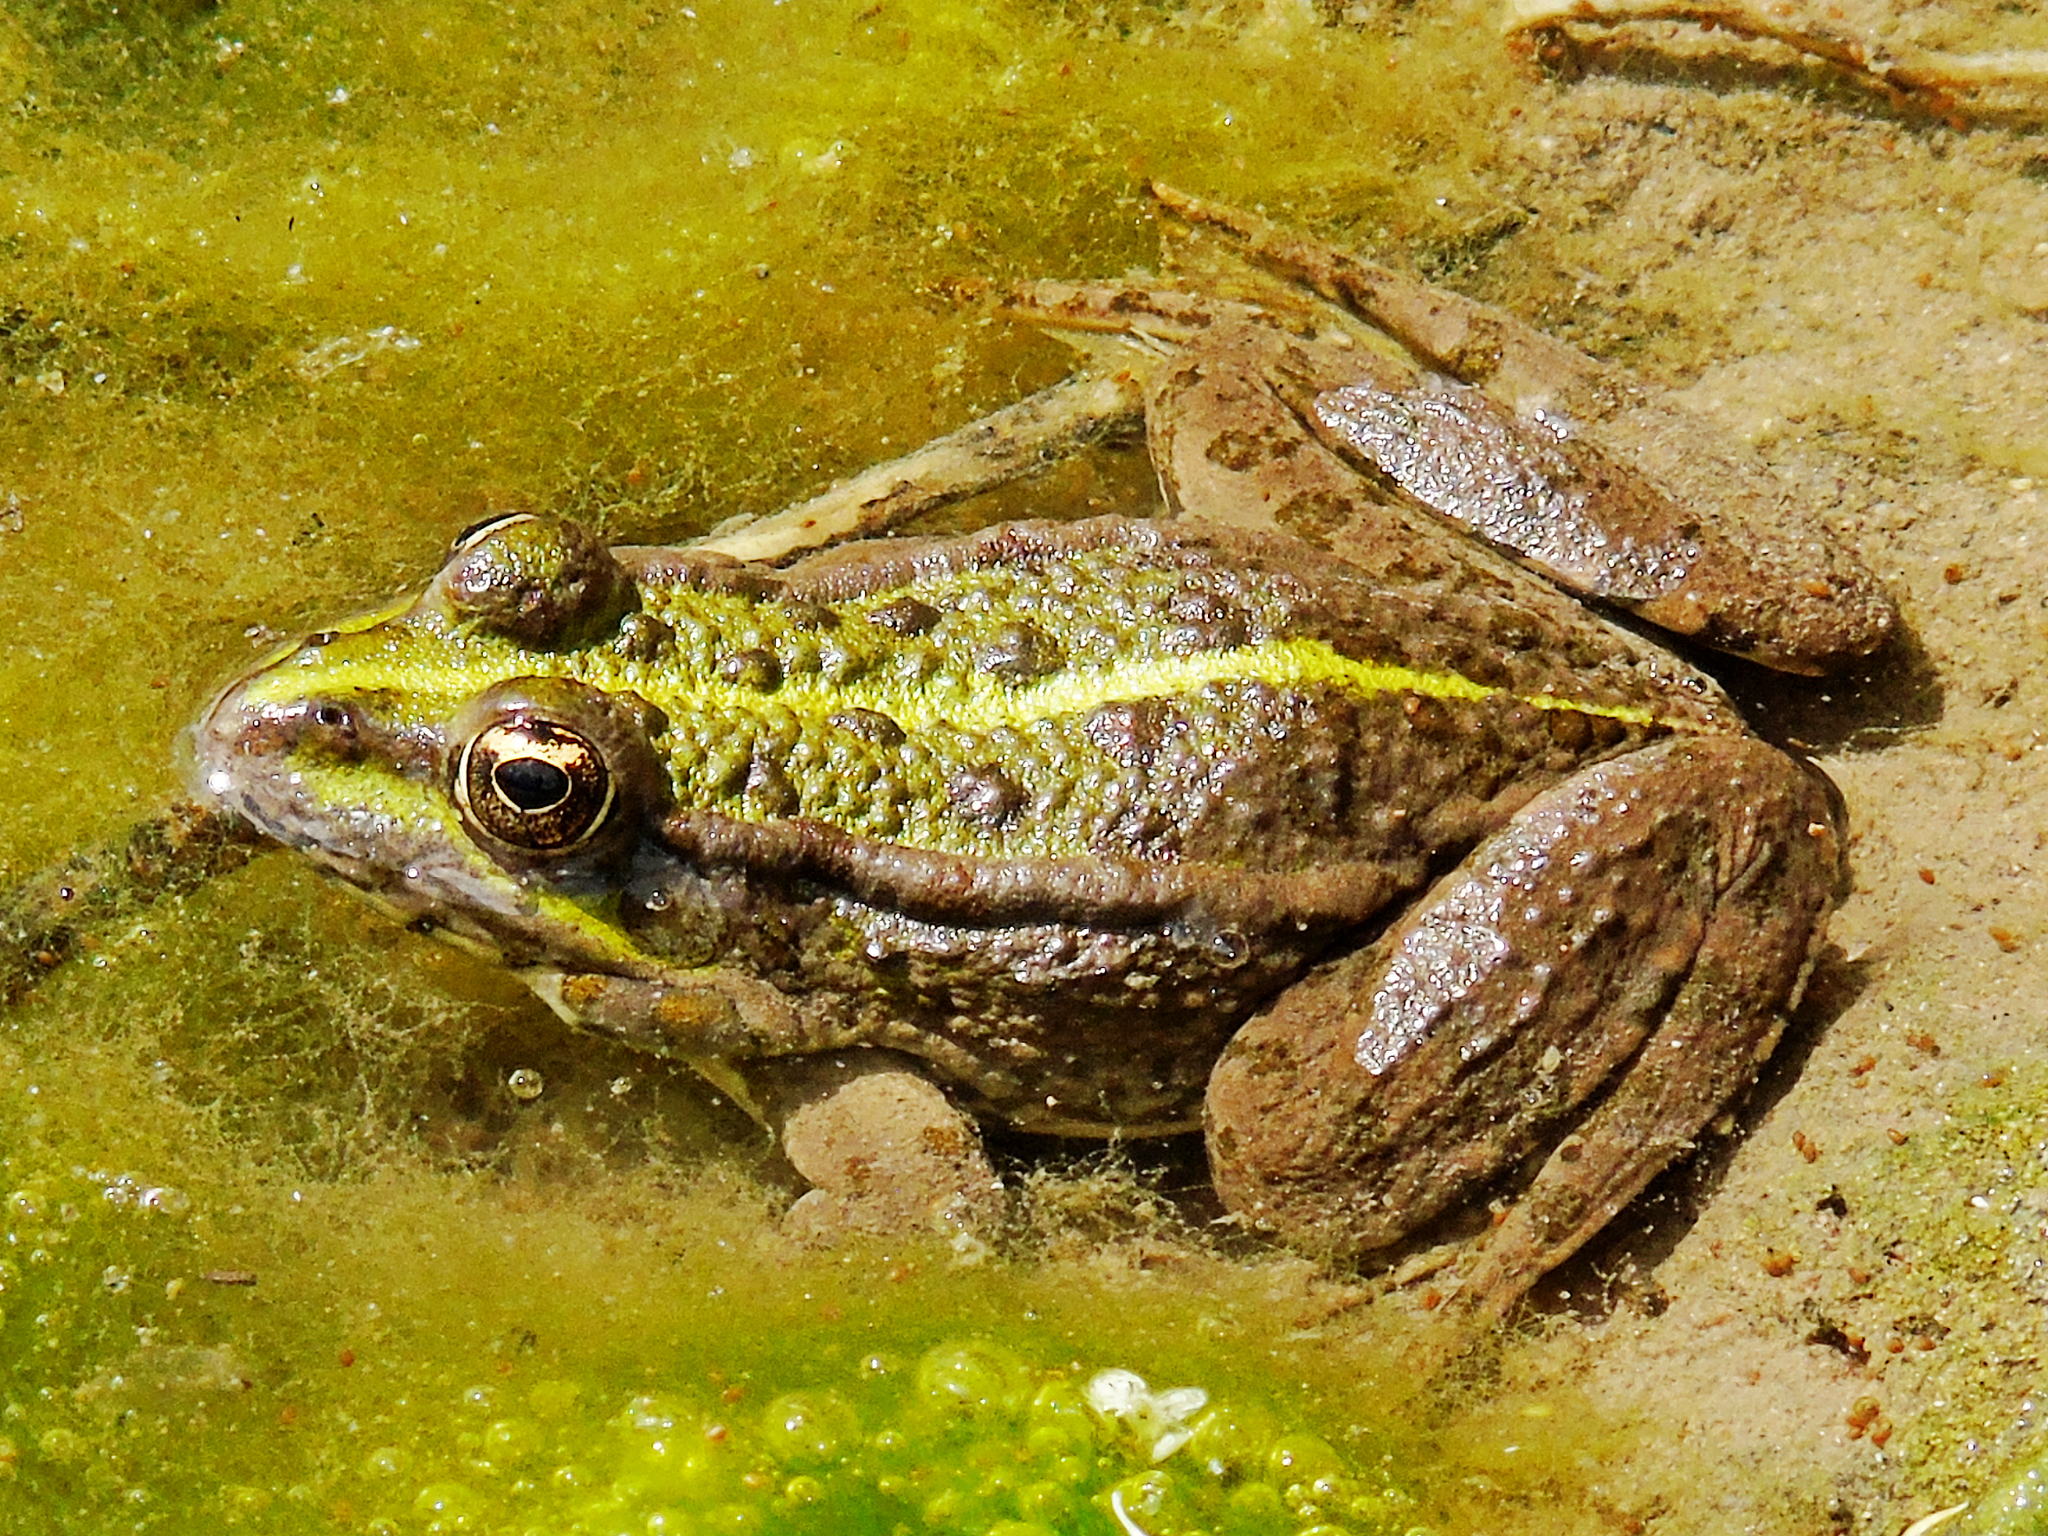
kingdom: Animalia
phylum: Chordata
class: Amphibia
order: Anura
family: Ranidae
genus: Pelophylax
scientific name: Pelophylax ridibundus
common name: Marsh frog
